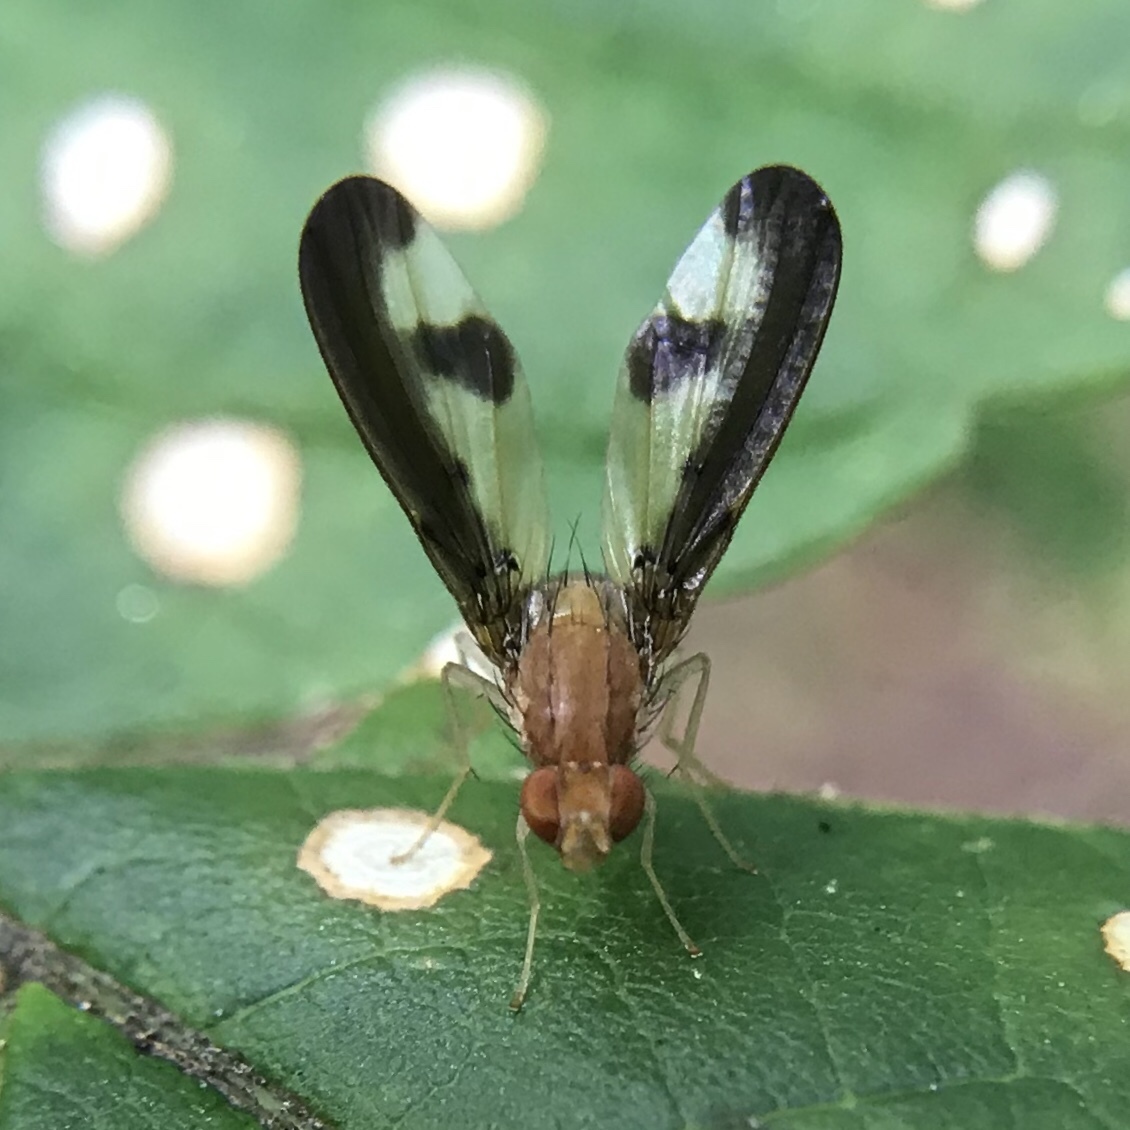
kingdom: Animalia
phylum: Arthropoda
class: Insecta
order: Diptera
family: Pallopteridae
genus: Toxonevra
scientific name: Toxonevra superba
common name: Antlered flutter fly
